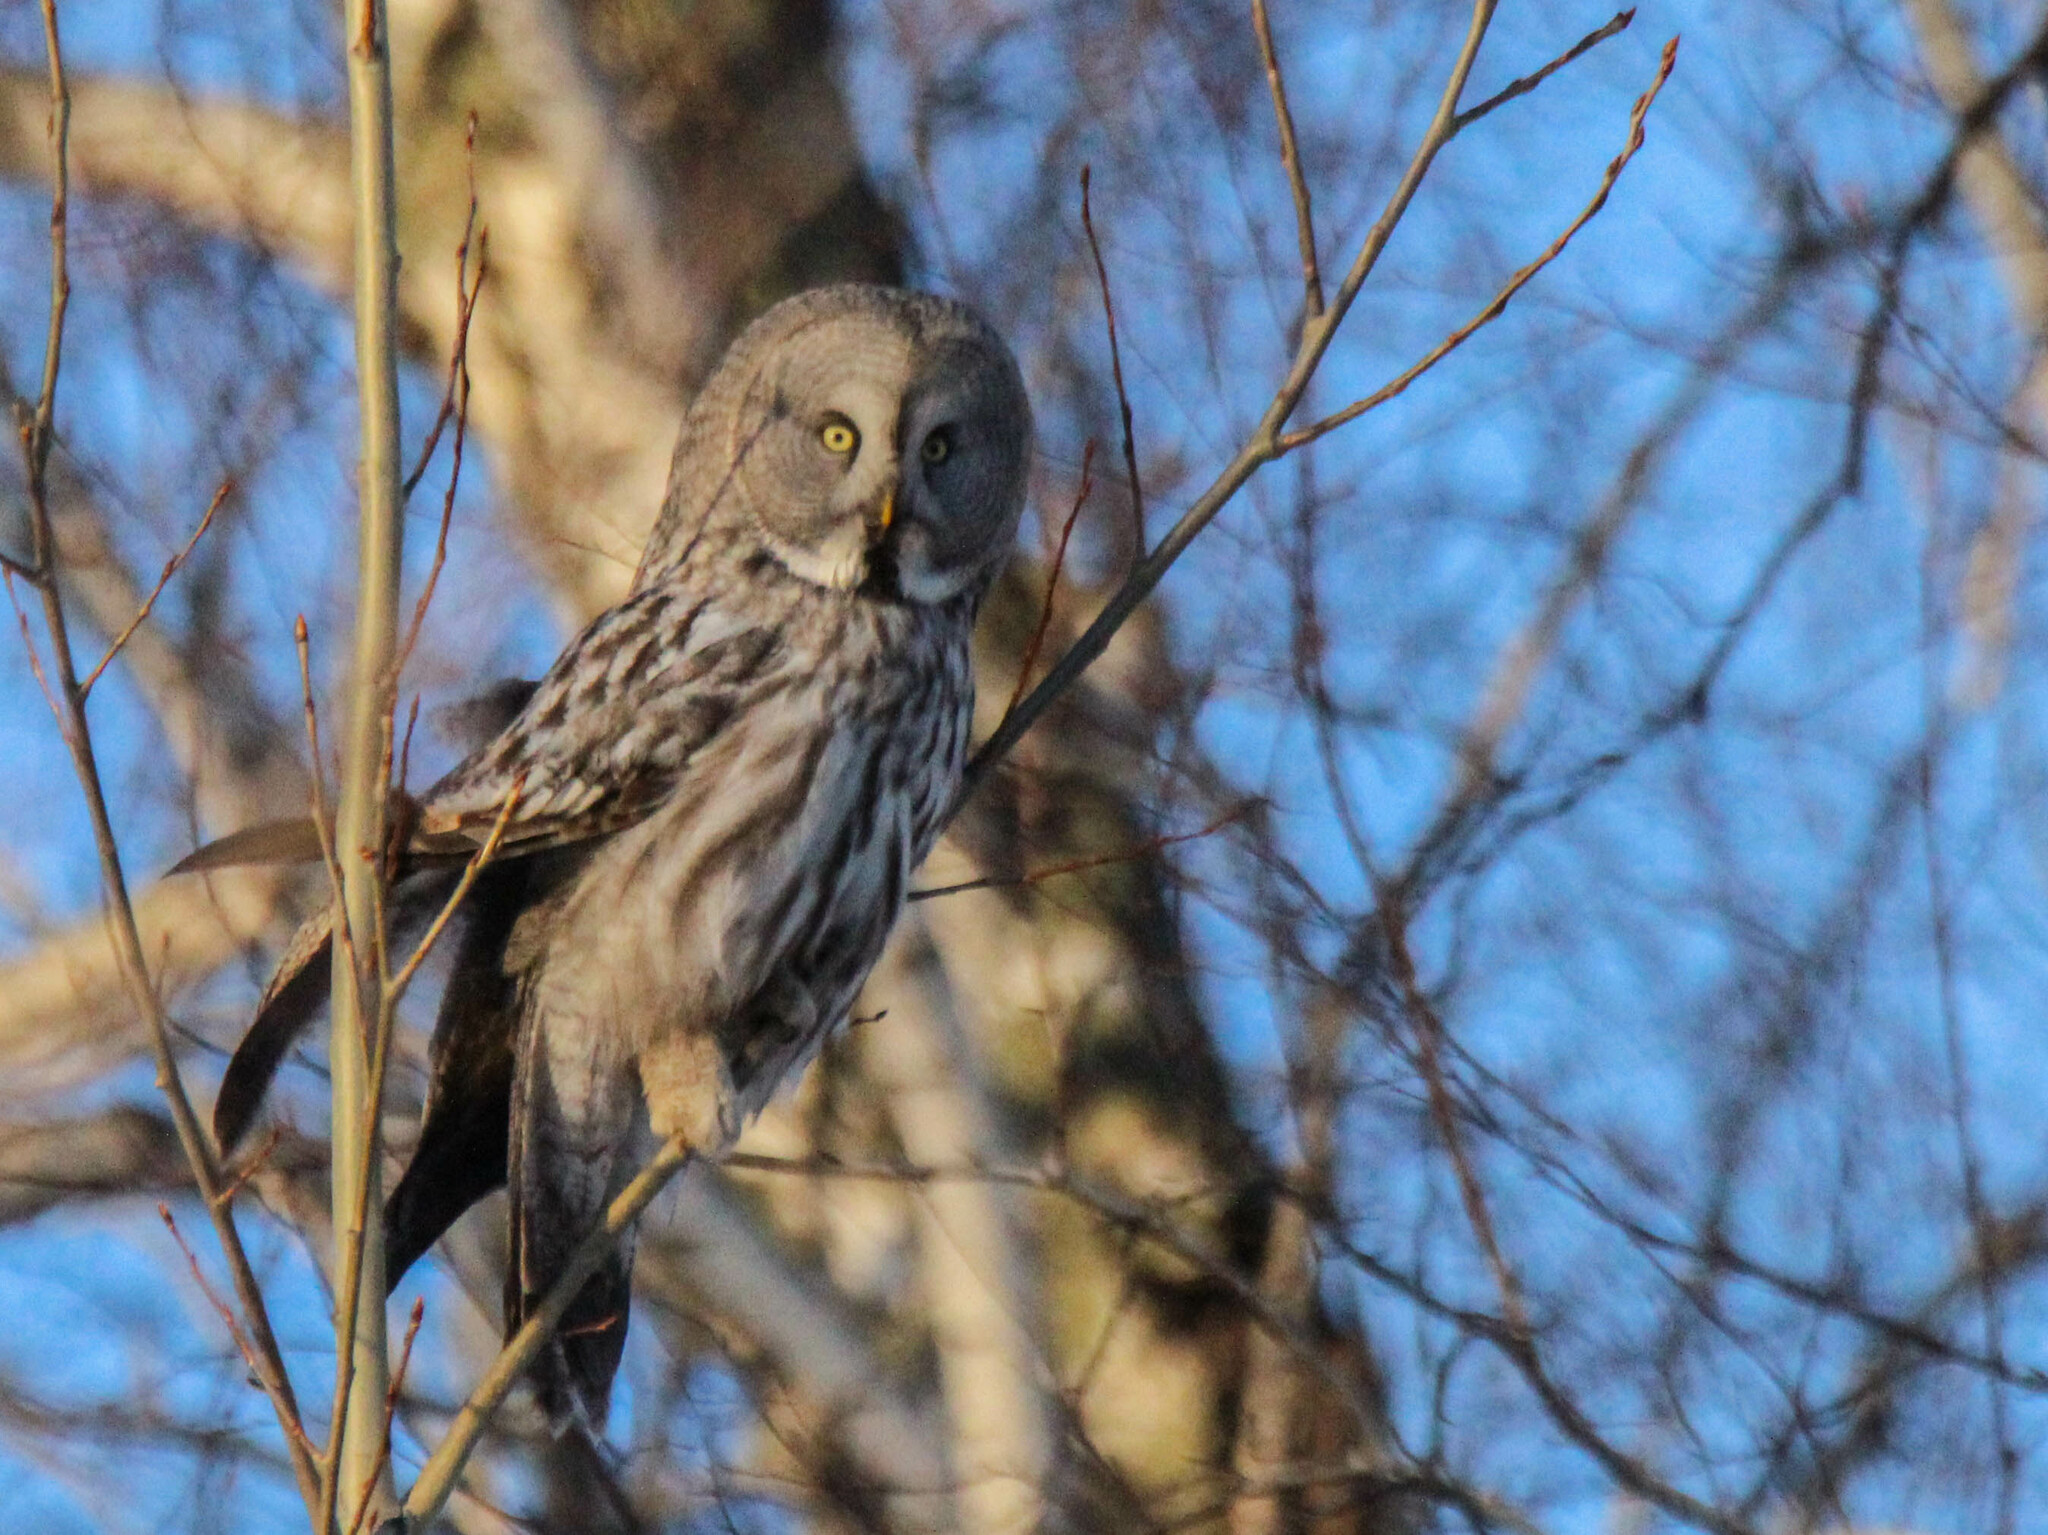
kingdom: Animalia
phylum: Chordata
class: Aves
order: Strigiformes
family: Strigidae
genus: Strix
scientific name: Strix nebulosa
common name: Great grey owl
